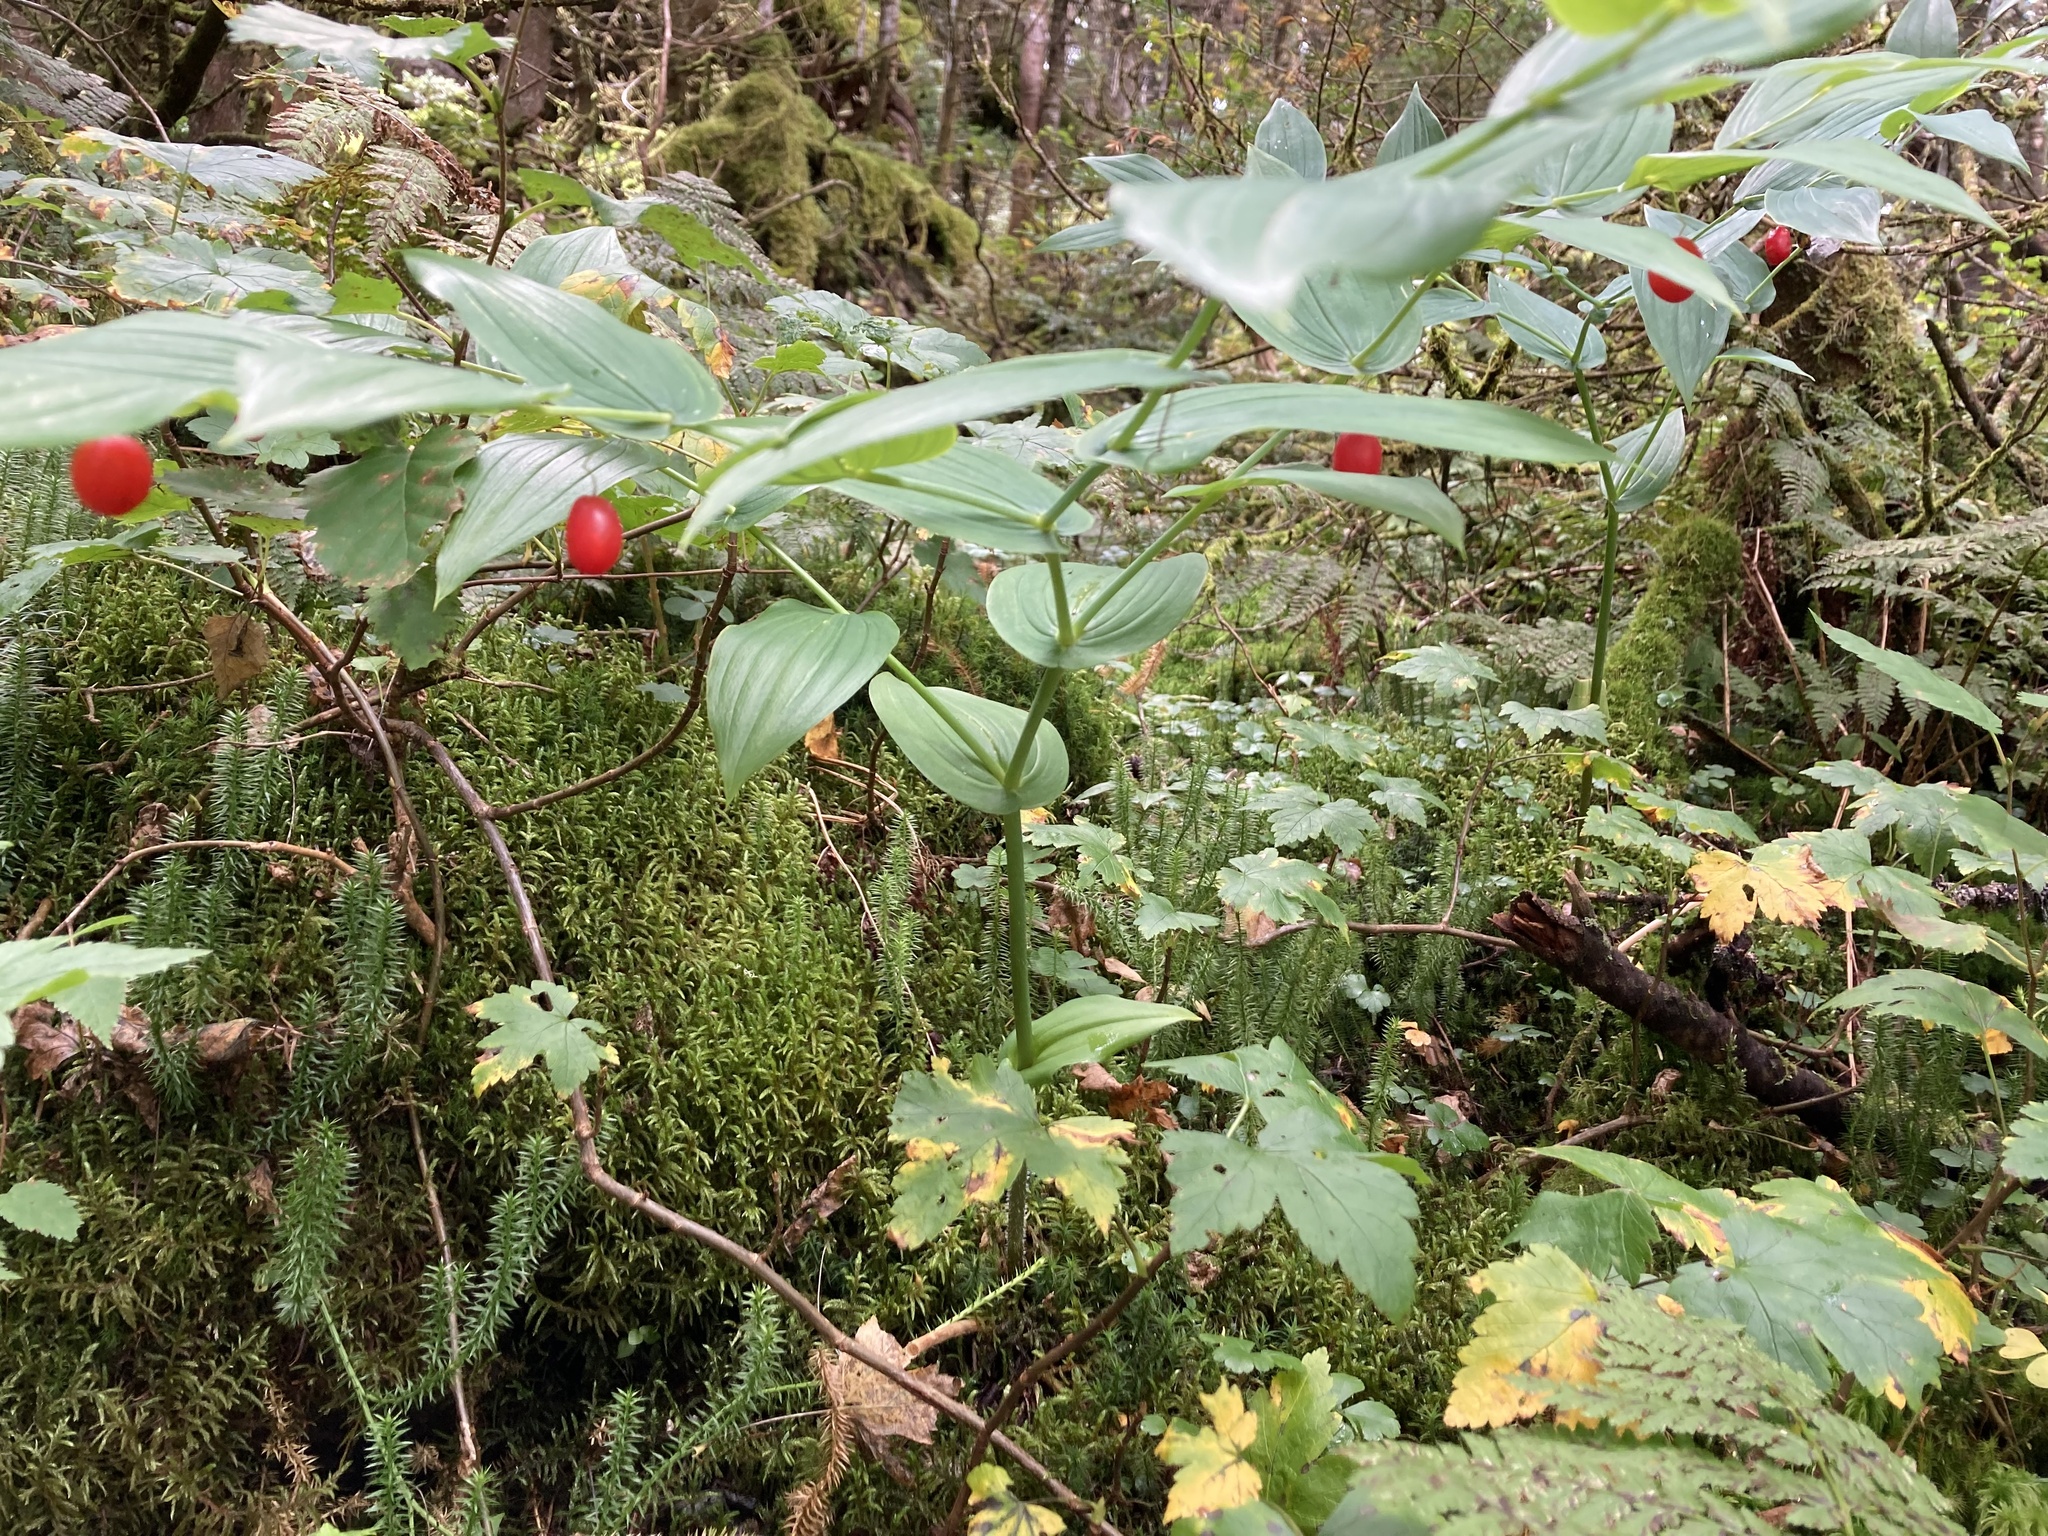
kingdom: Plantae
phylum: Tracheophyta
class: Liliopsida
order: Liliales
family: Liliaceae
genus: Streptopus
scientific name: Streptopus amplexifolius
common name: Clasp twisted stalk
